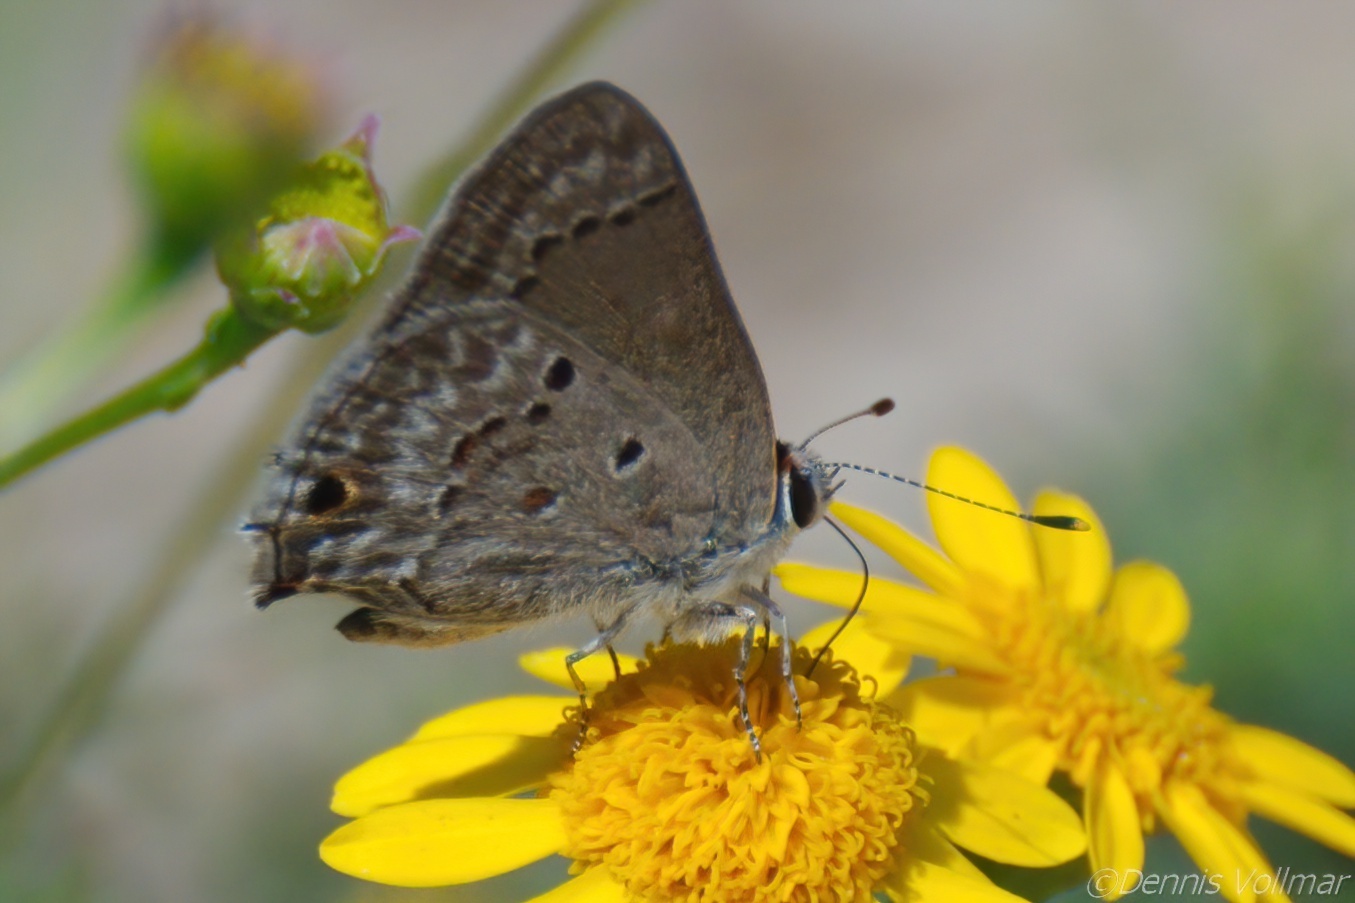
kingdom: Animalia
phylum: Arthropoda
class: Insecta
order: Lepidoptera
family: Lycaenidae
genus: Callicista
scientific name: Callicista columella
